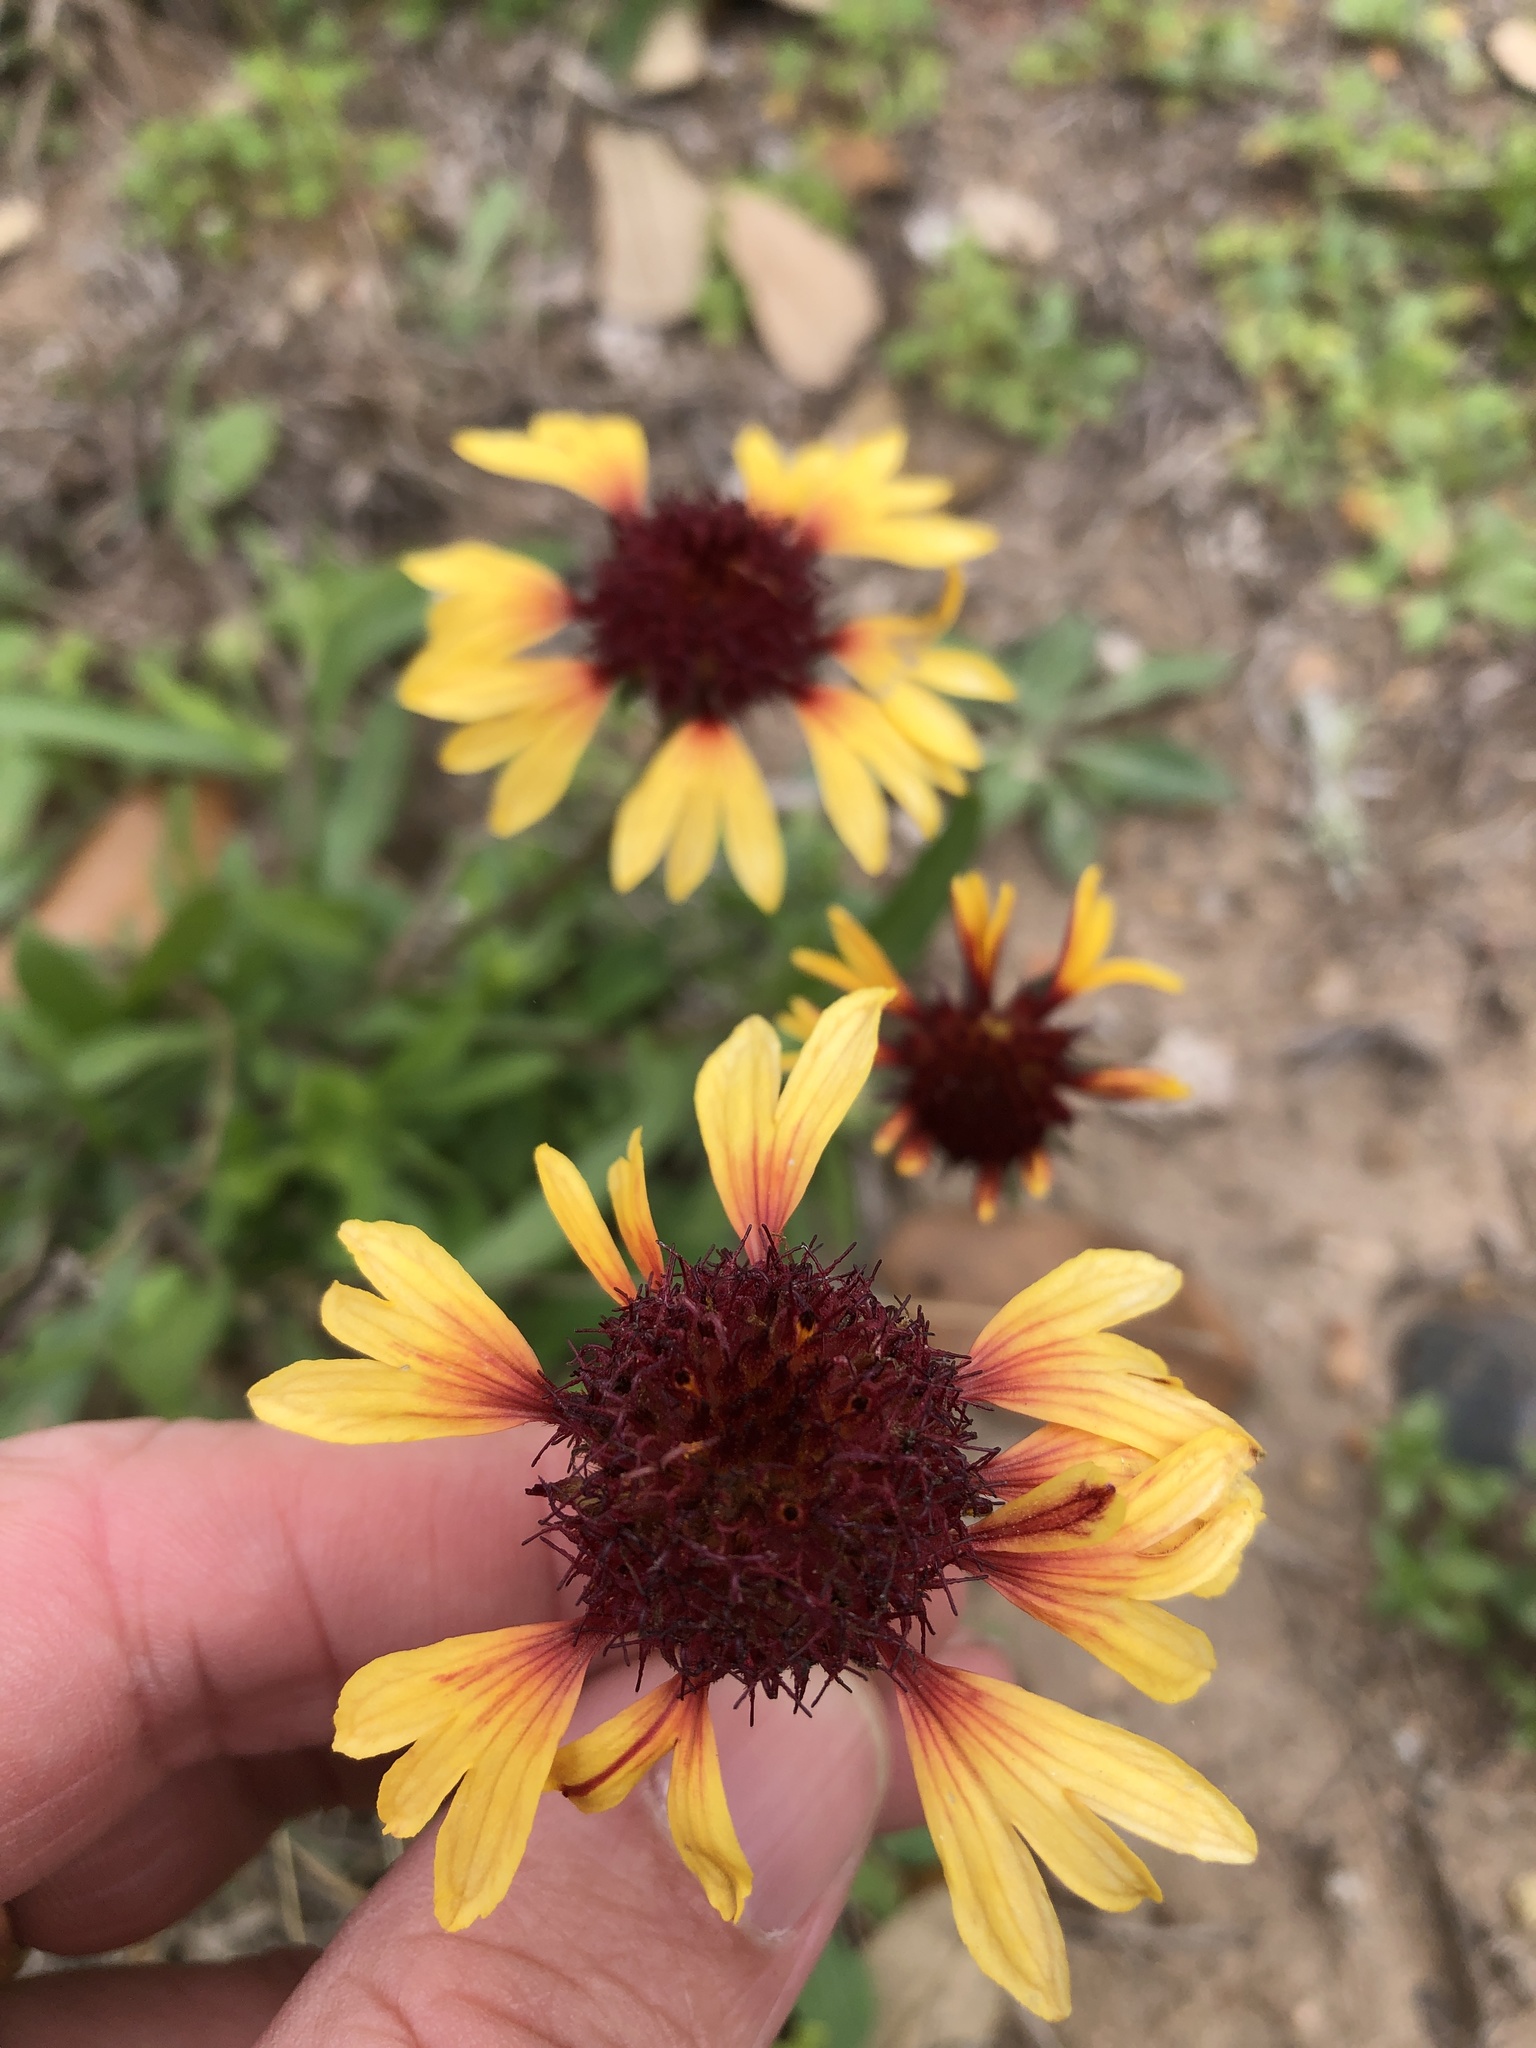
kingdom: Plantae
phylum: Tracheophyta
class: Magnoliopsida
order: Asterales
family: Asteraceae
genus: Gaillardia
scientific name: Gaillardia aestivalis
